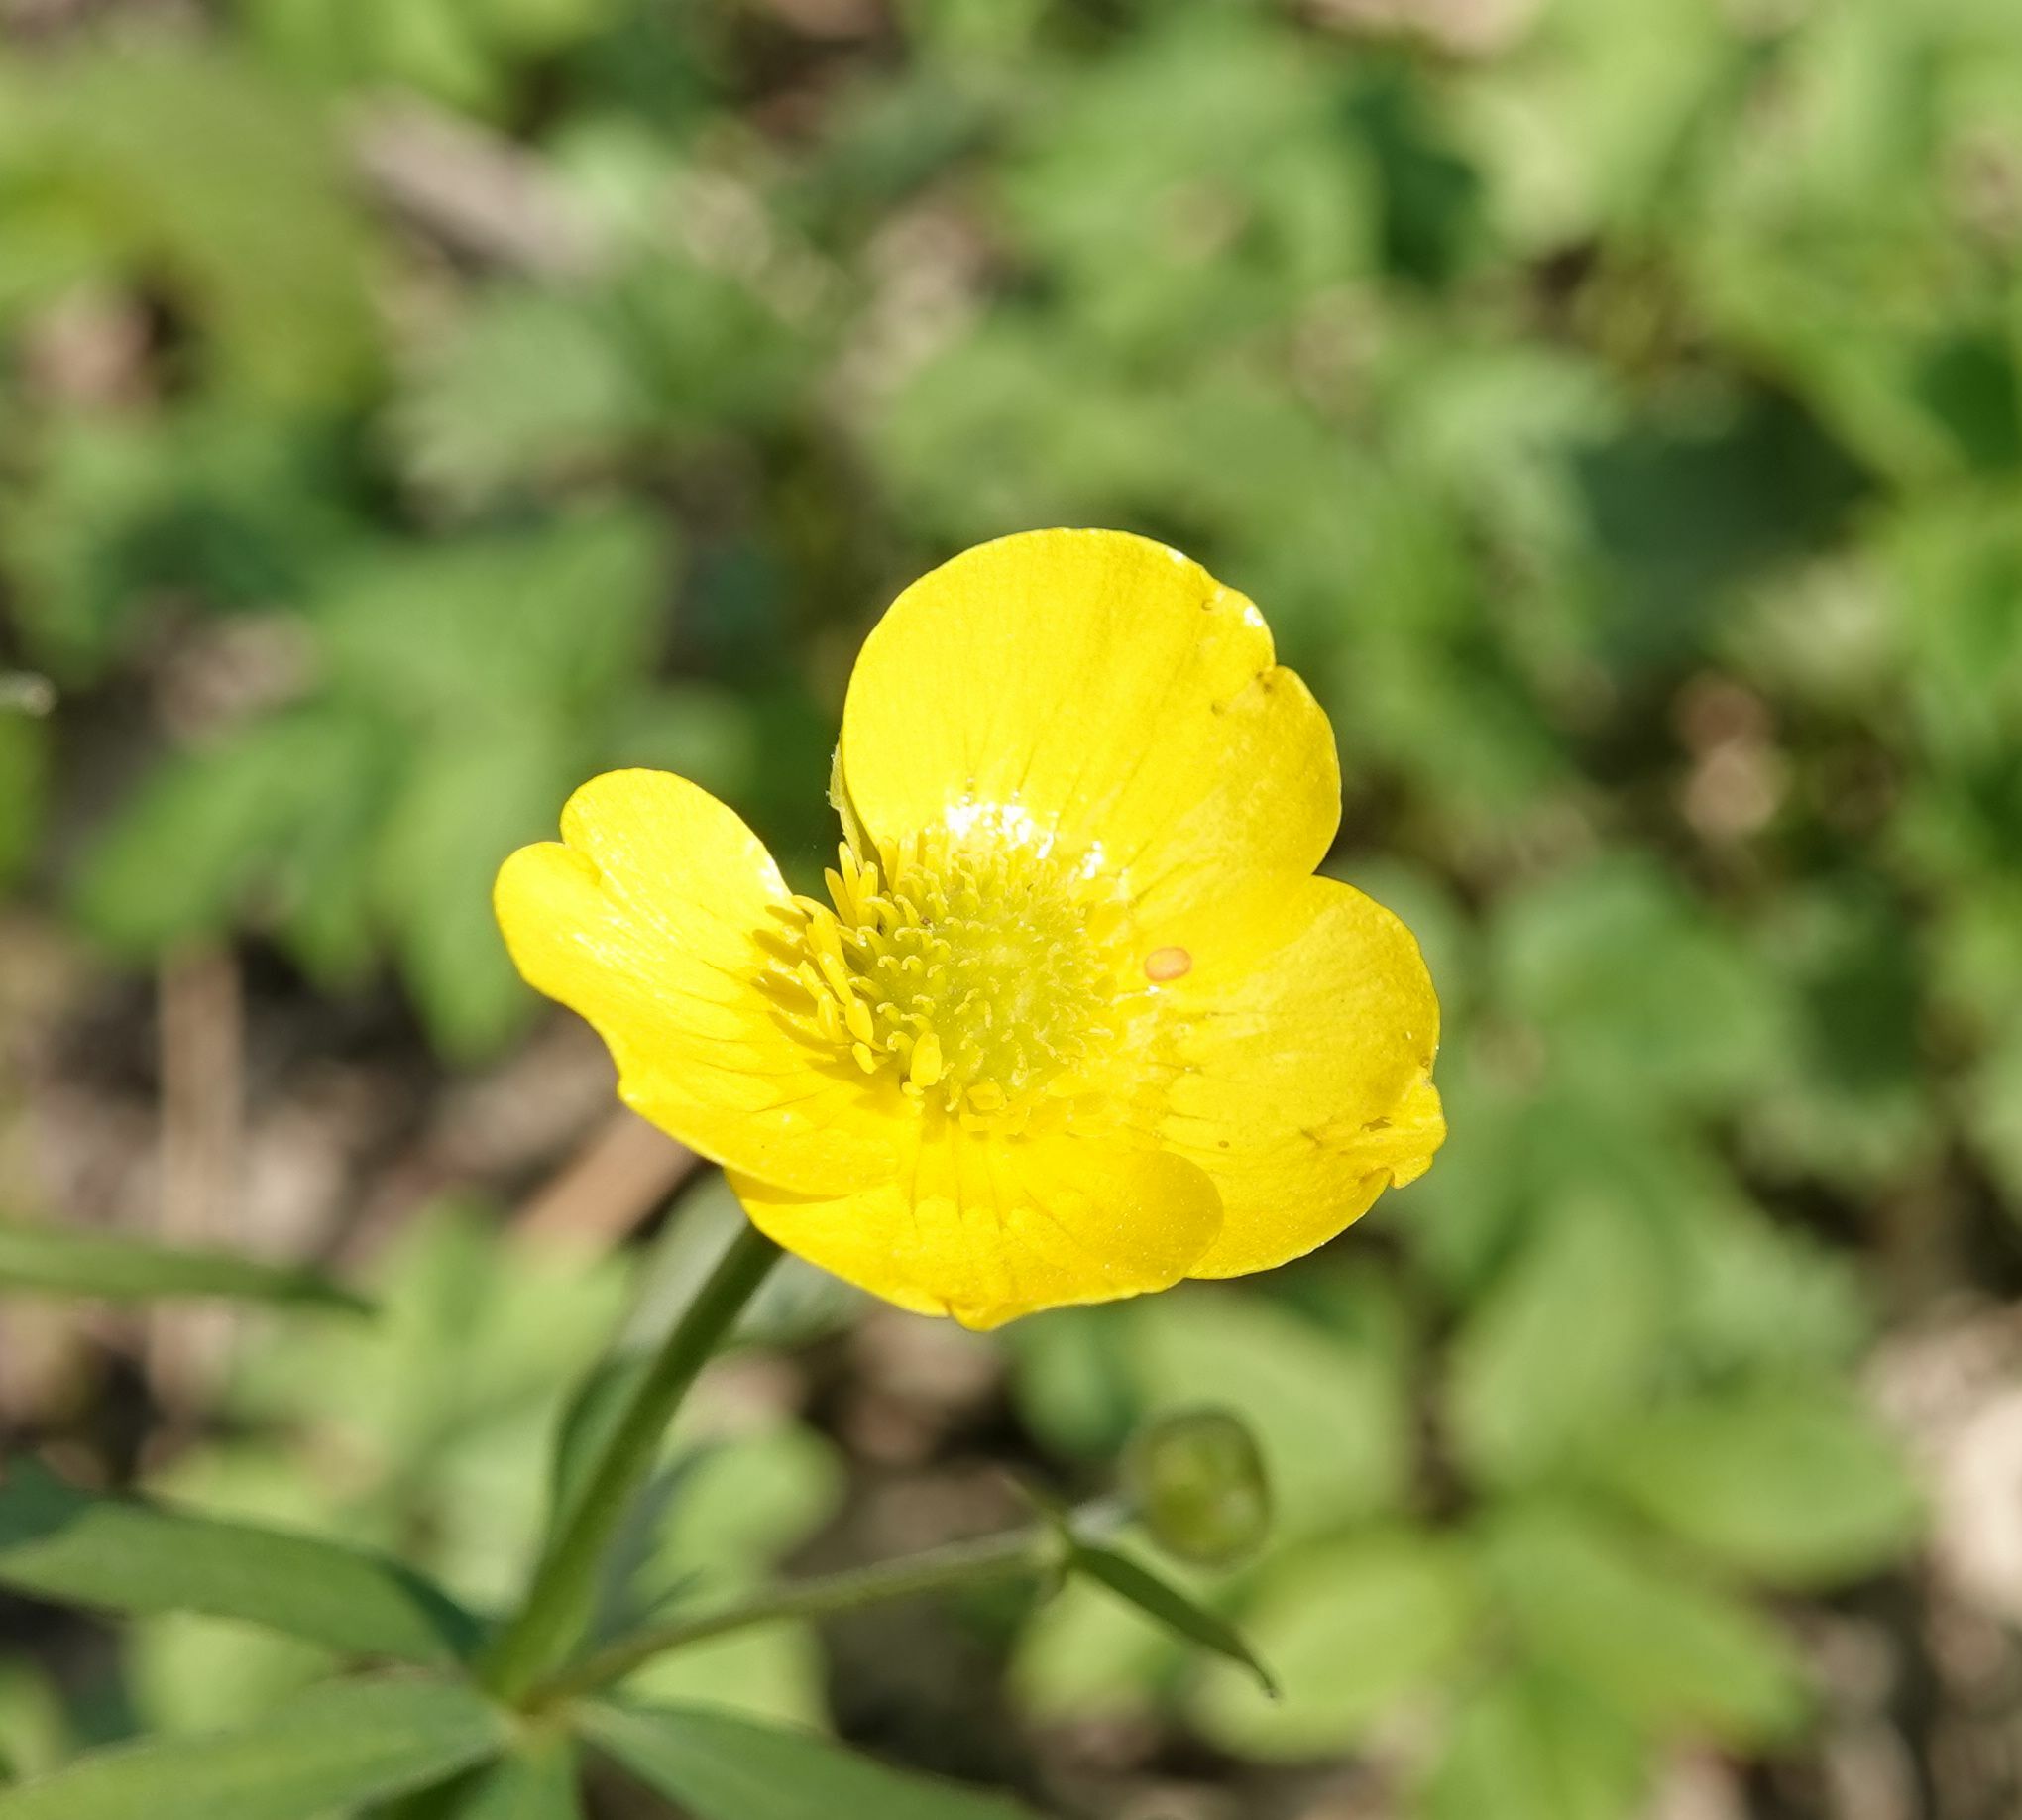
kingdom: Plantae
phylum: Tracheophyta
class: Magnoliopsida
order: Ranunculales
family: Ranunculaceae
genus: Ranunculus
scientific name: Ranunculus cassubicus
